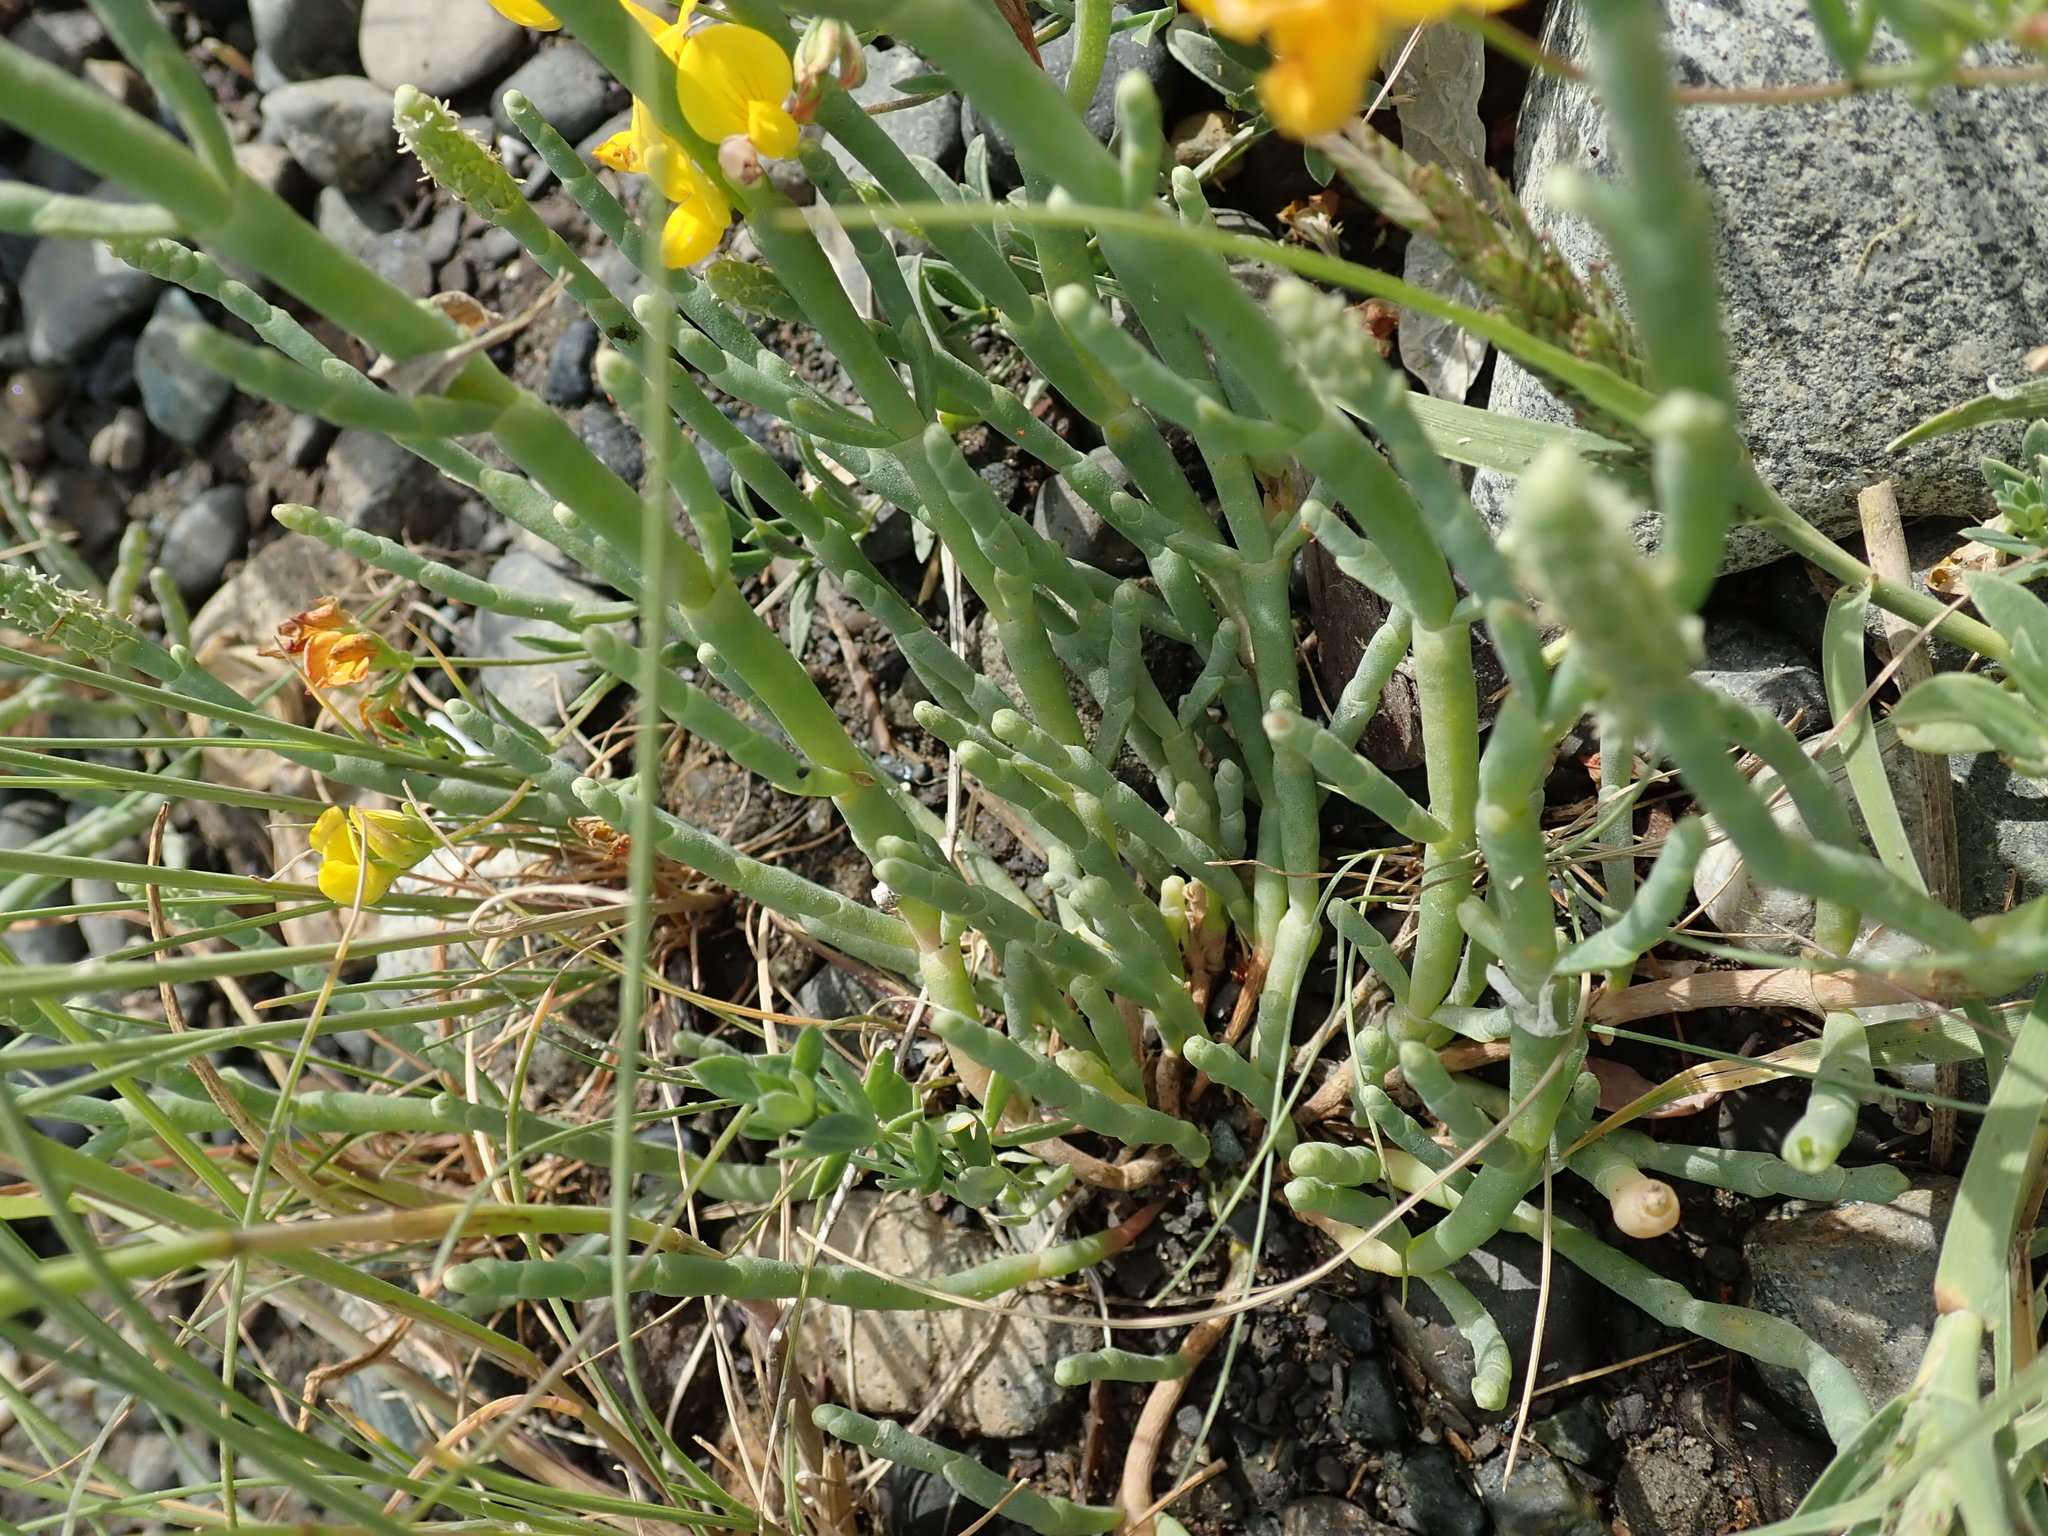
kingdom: Plantae
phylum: Tracheophyta
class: Magnoliopsida
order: Caryophyllales
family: Amaranthaceae
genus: Salicornia
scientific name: Salicornia pacifica
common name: Pacific glasswort
